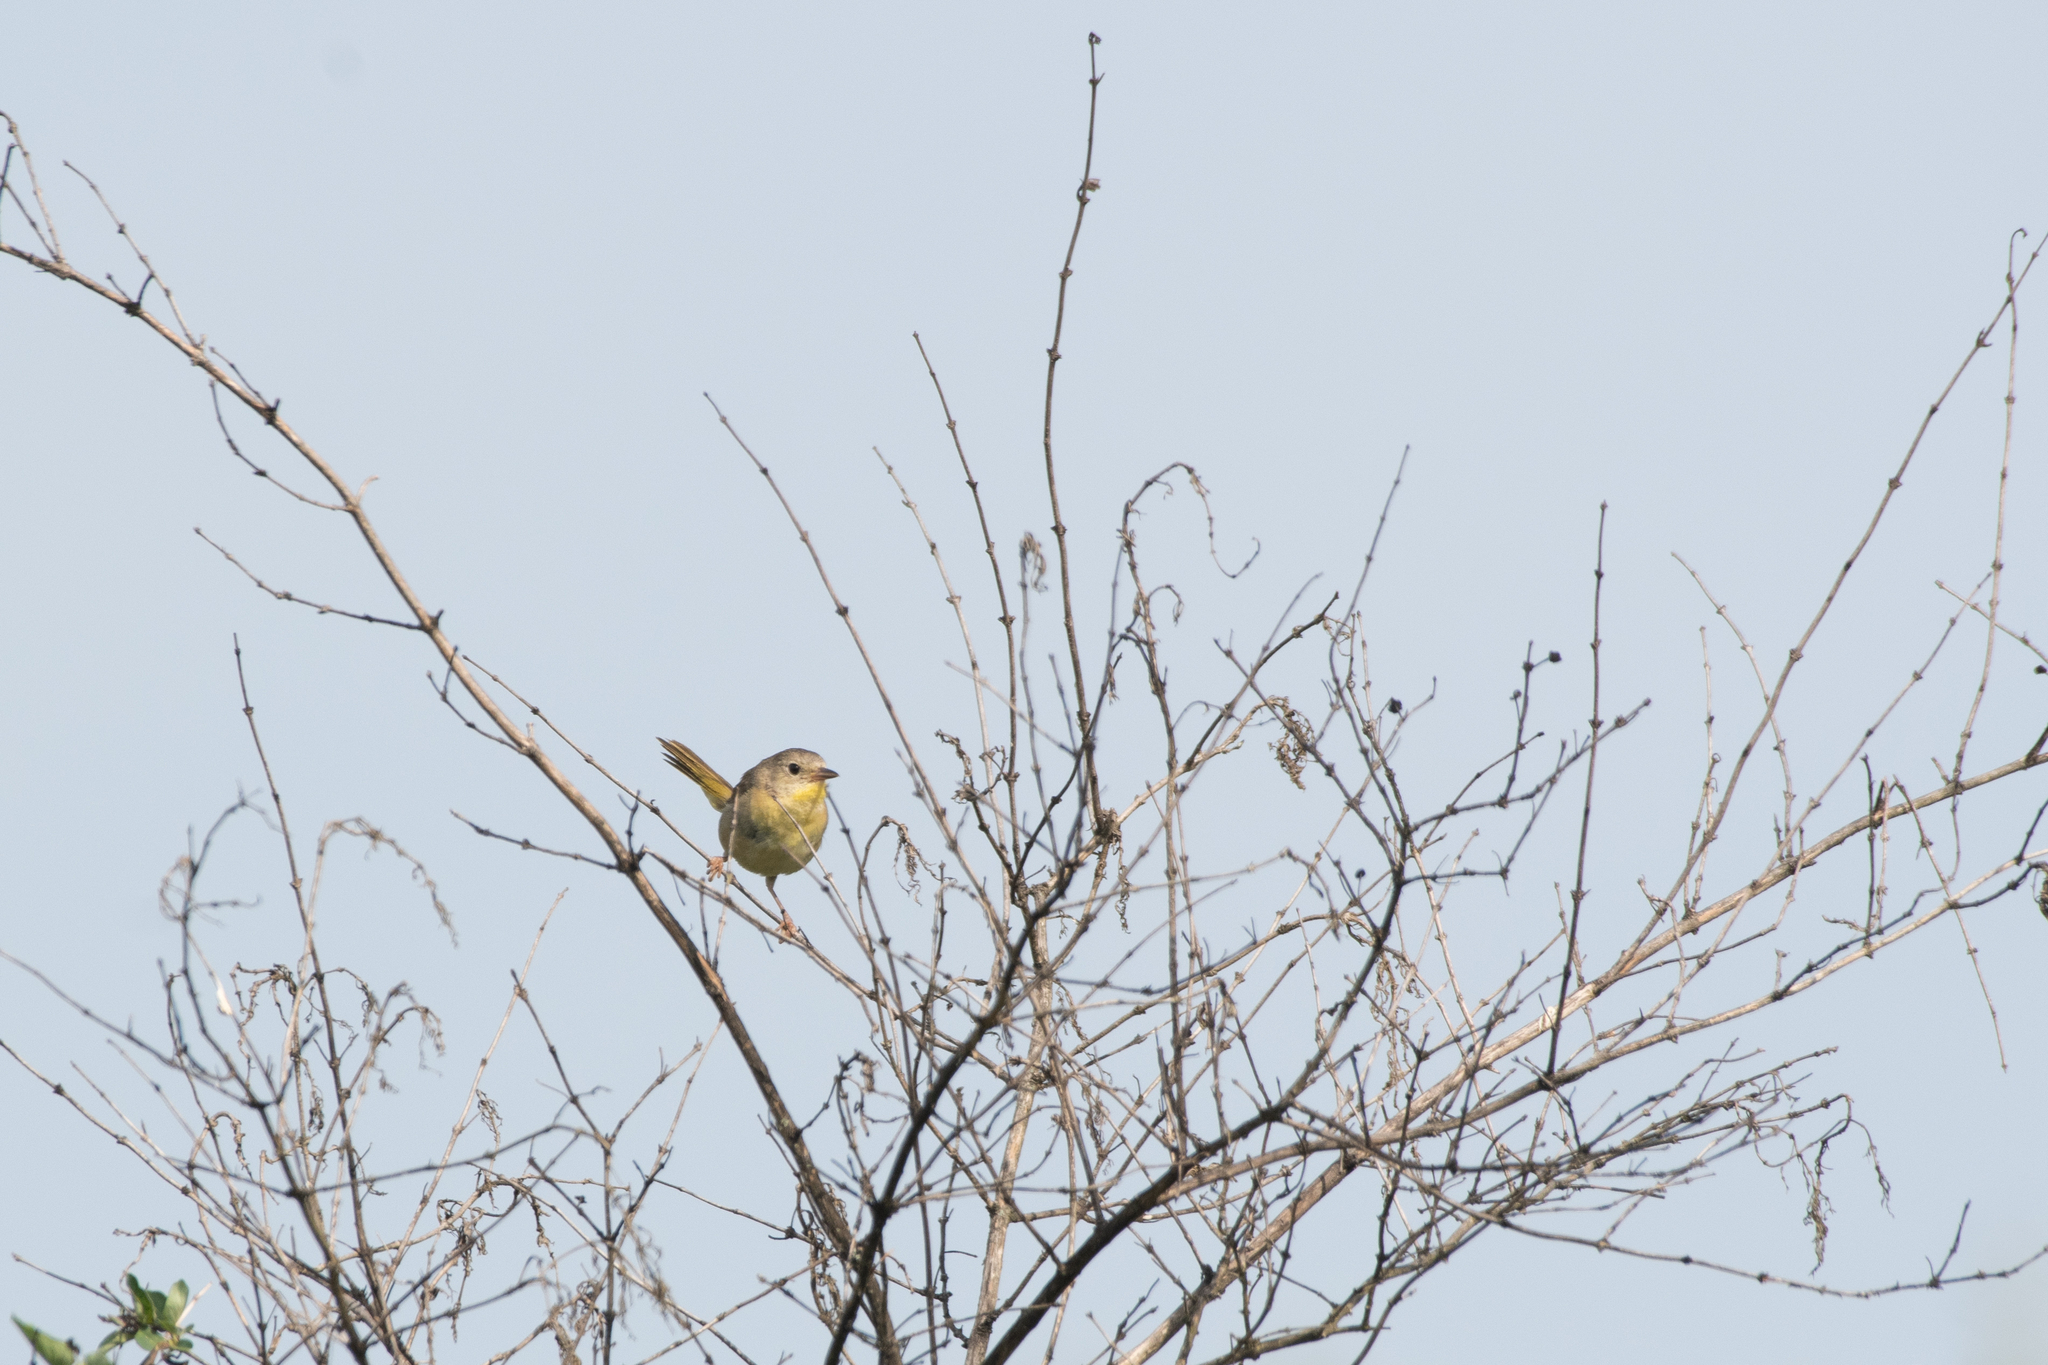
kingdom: Animalia
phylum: Chordata
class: Aves
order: Passeriformes
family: Parulidae
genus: Geothlypis
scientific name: Geothlypis trichas
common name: Common yellowthroat
